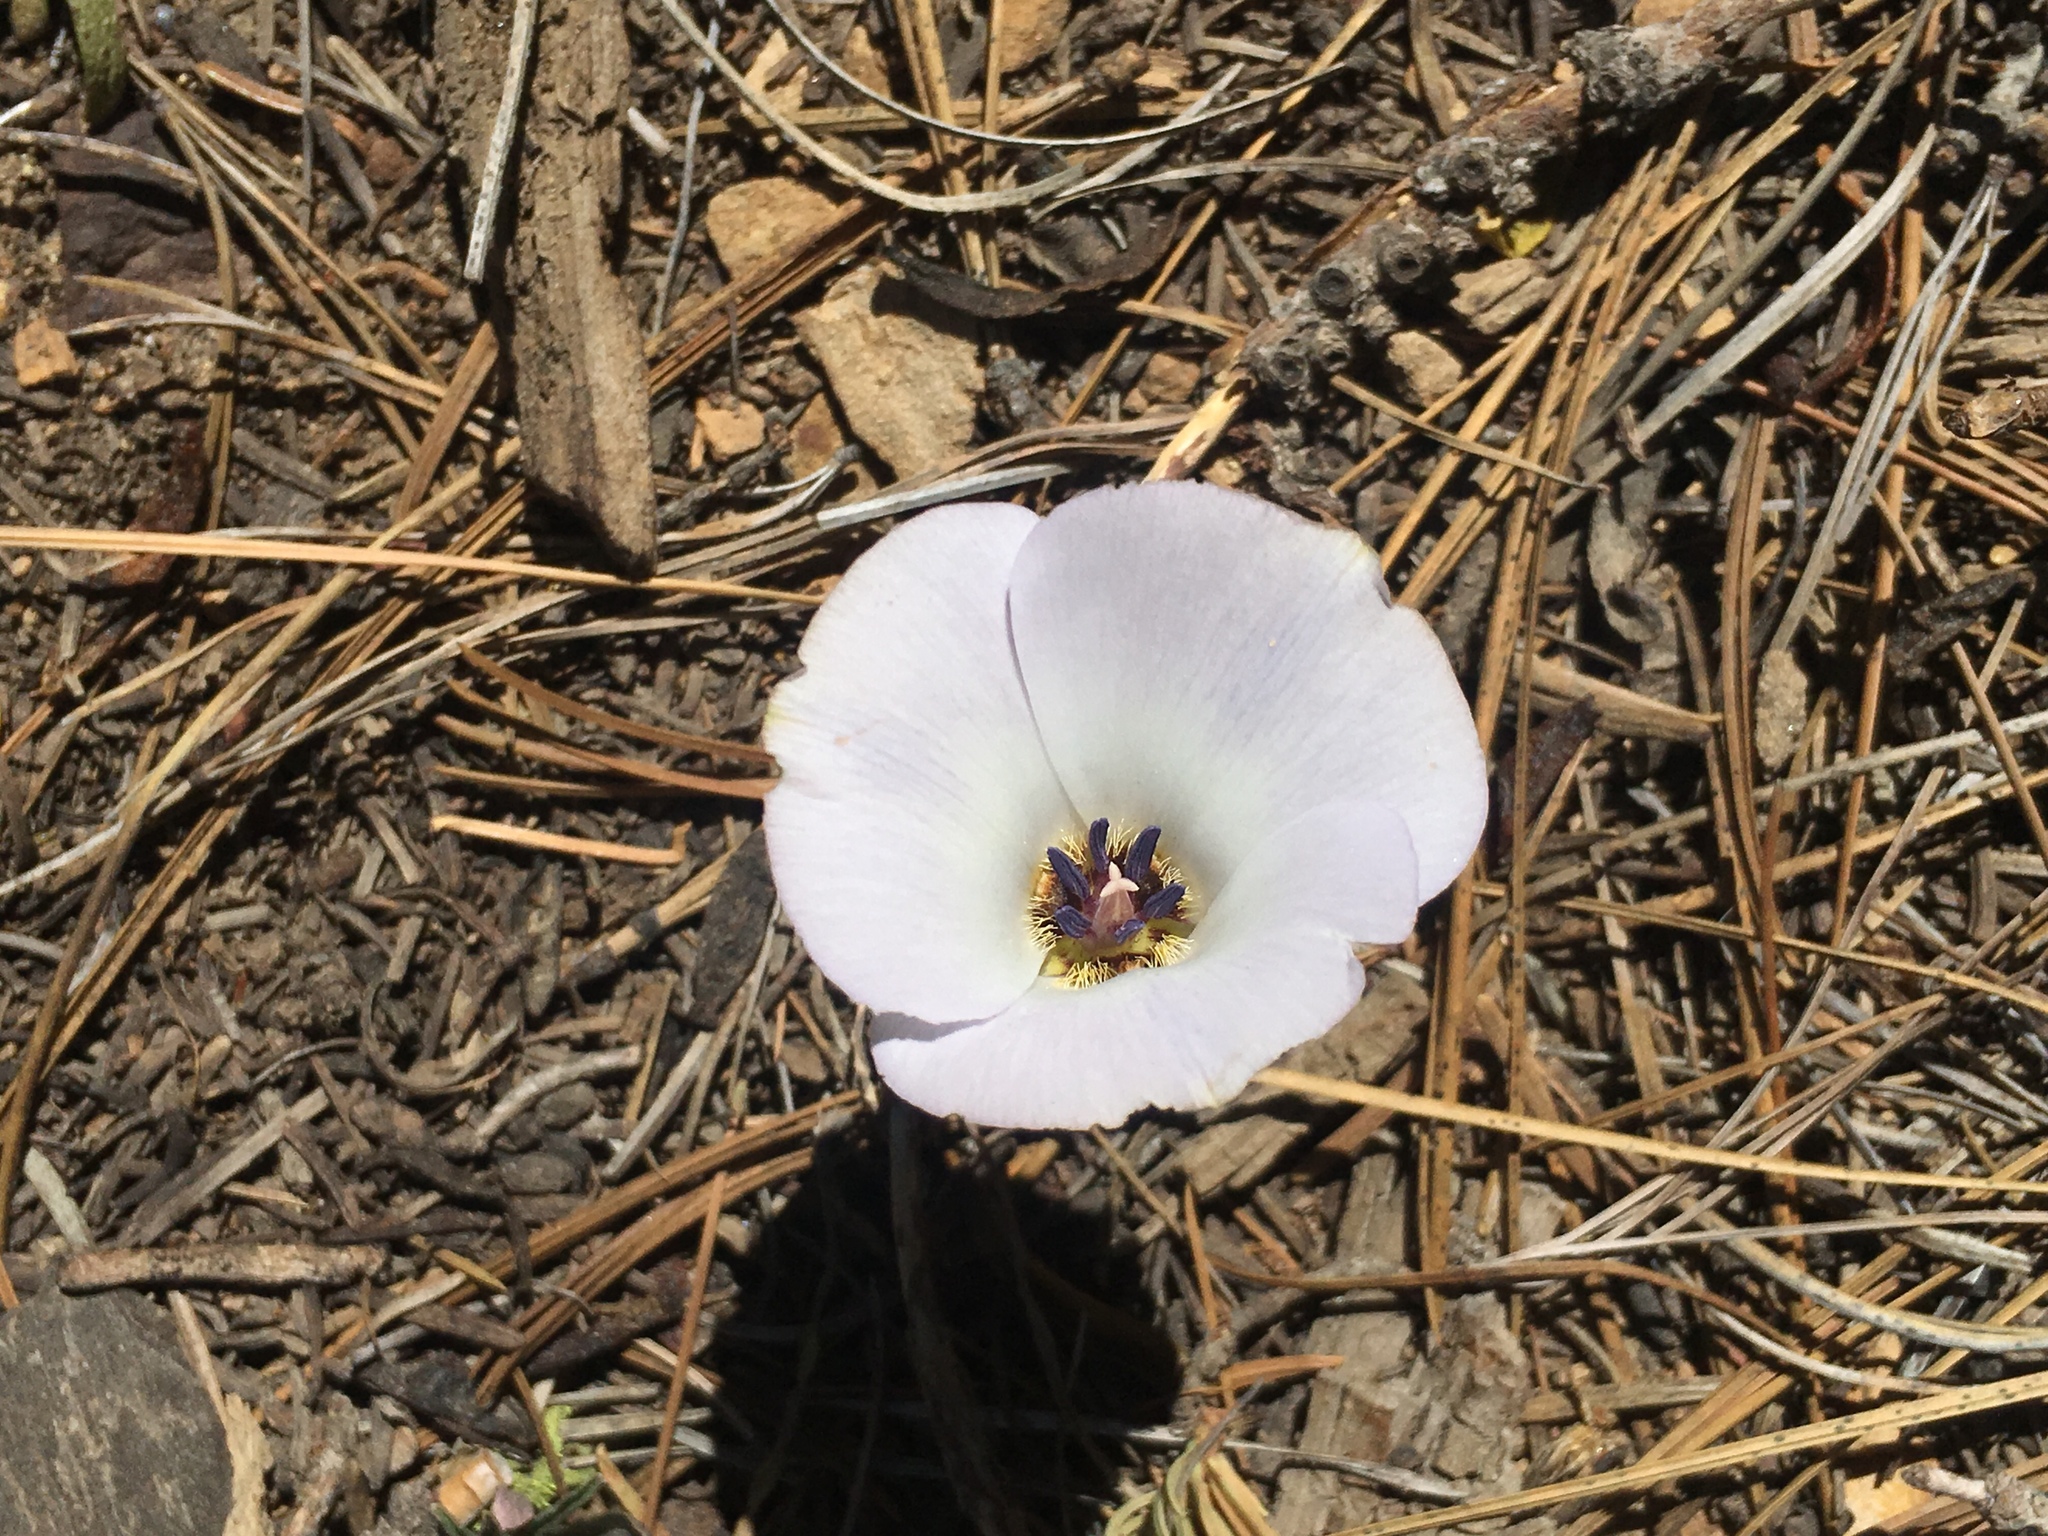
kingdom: Plantae
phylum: Tracheophyta
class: Liliopsida
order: Liliales
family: Liliaceae
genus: Calochortus
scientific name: Calochortus invenustus
